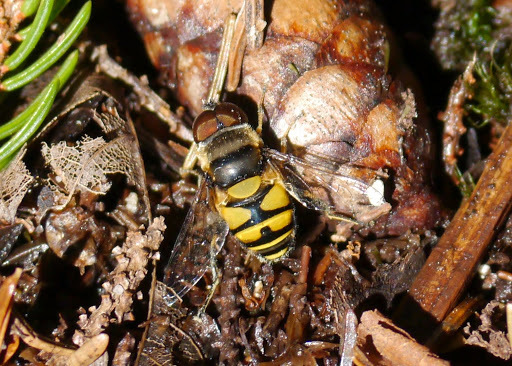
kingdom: Animalia
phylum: Arthropoda
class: Insecta
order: Diptera
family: Syrphidae
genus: Eristalis
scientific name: Eristalis transversa
